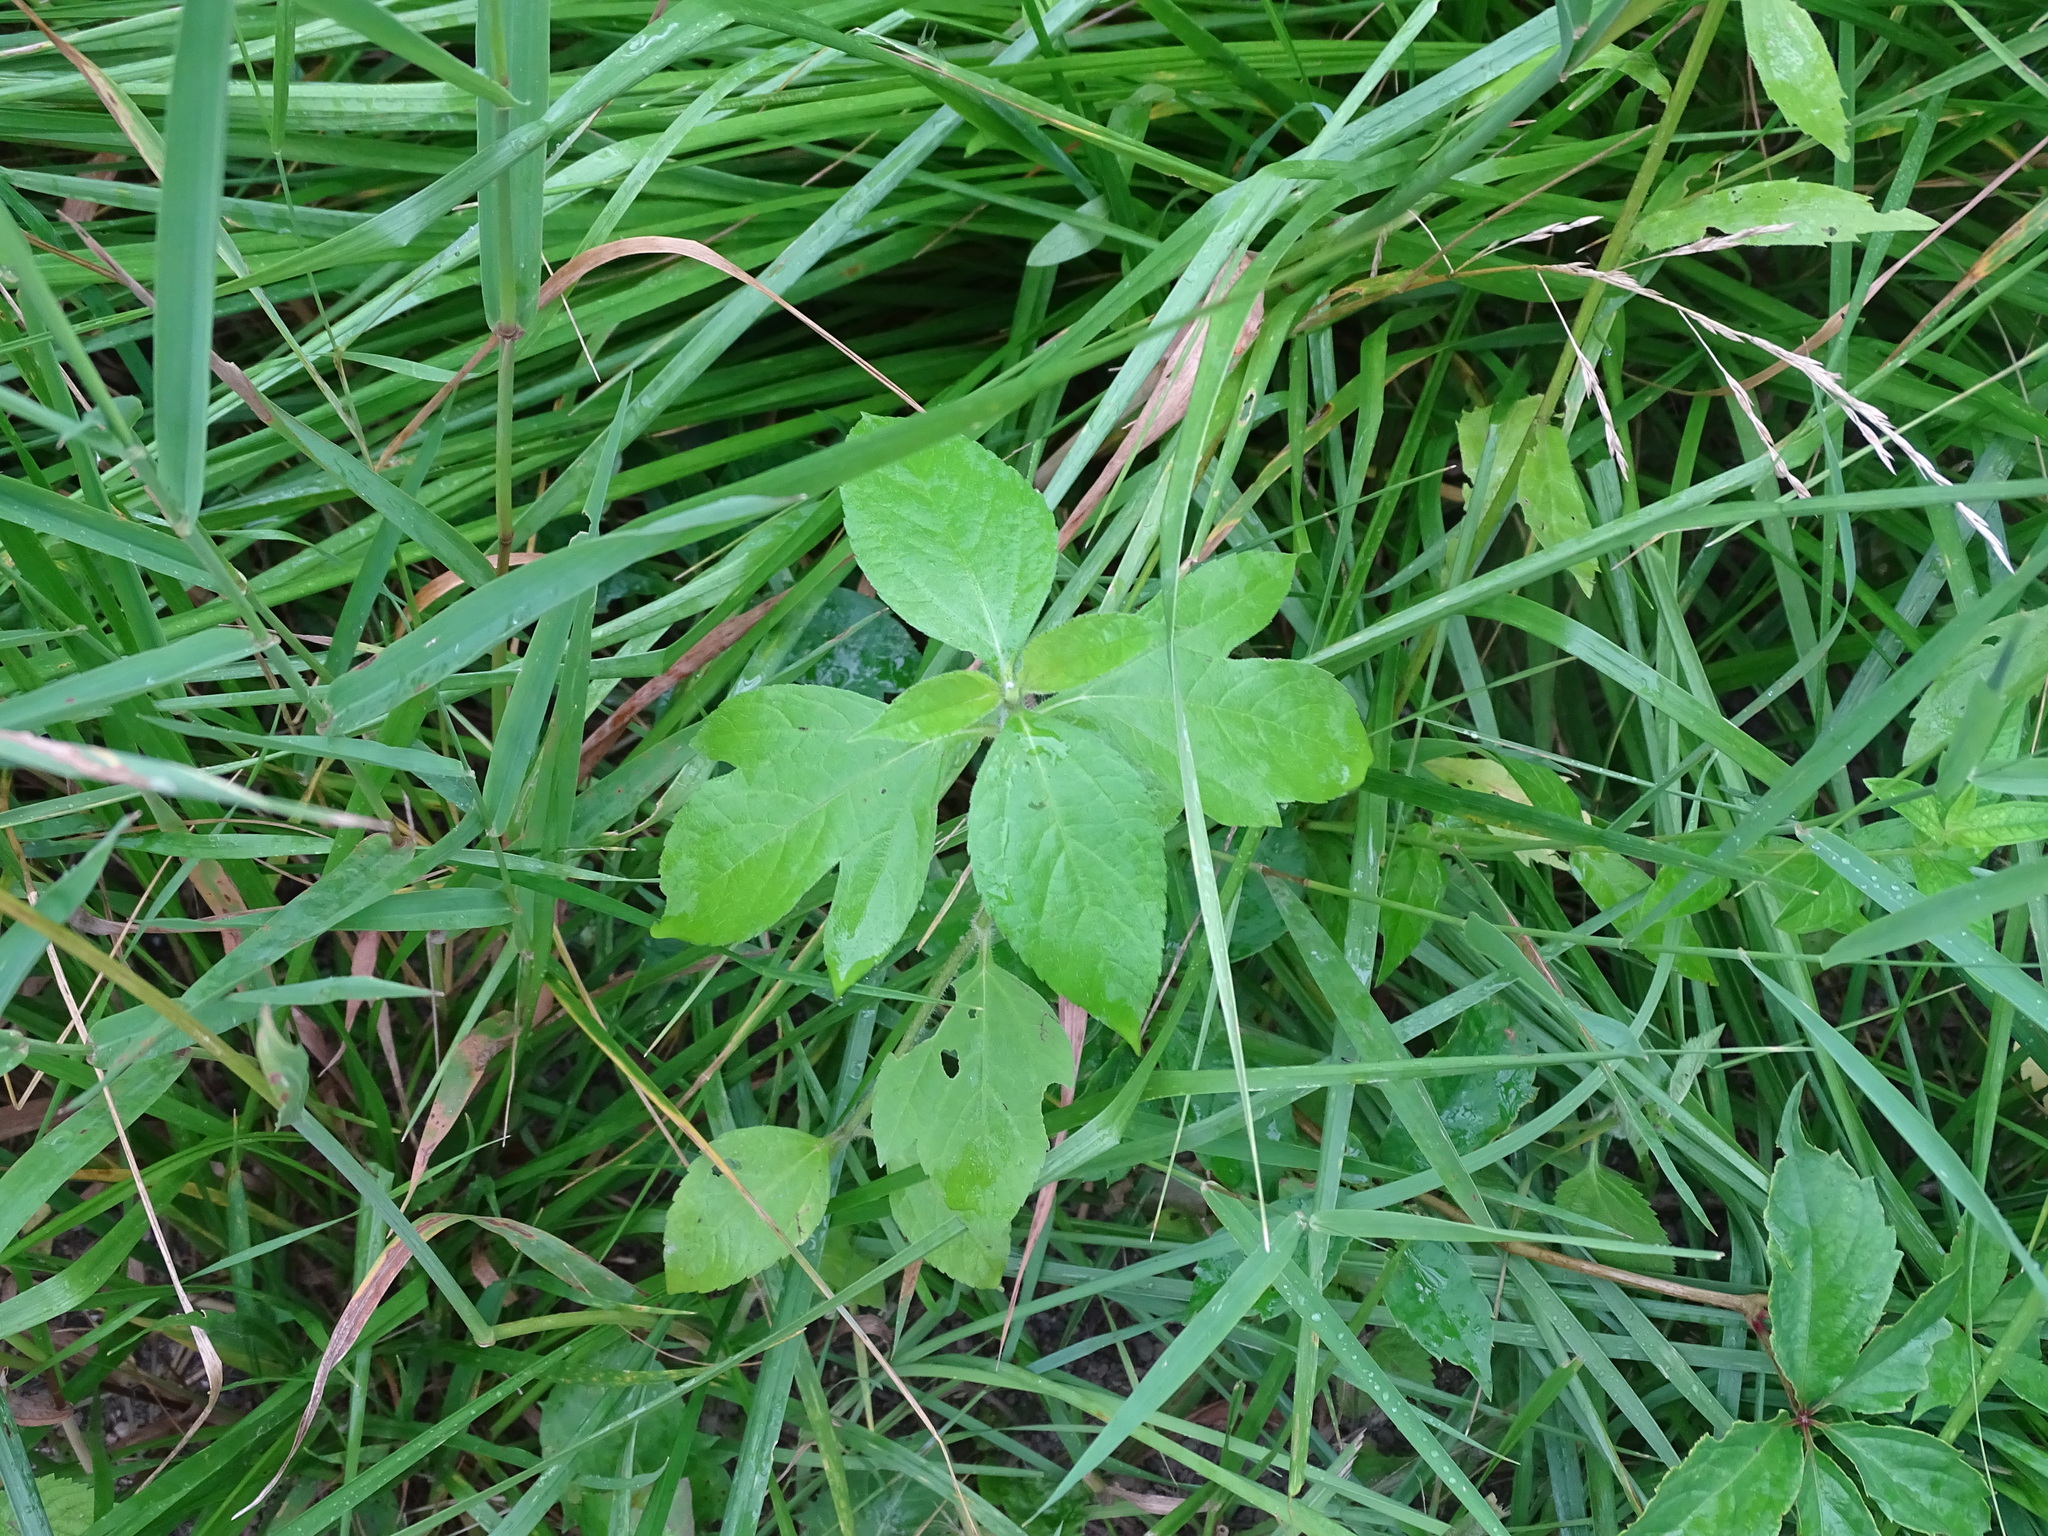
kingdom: Plantae
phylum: Tracheophyta
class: Magnoliopsida
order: Asterales
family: Asteraceae
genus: Ambrosia
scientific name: Ambrosia trifida
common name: Giant ragweed
